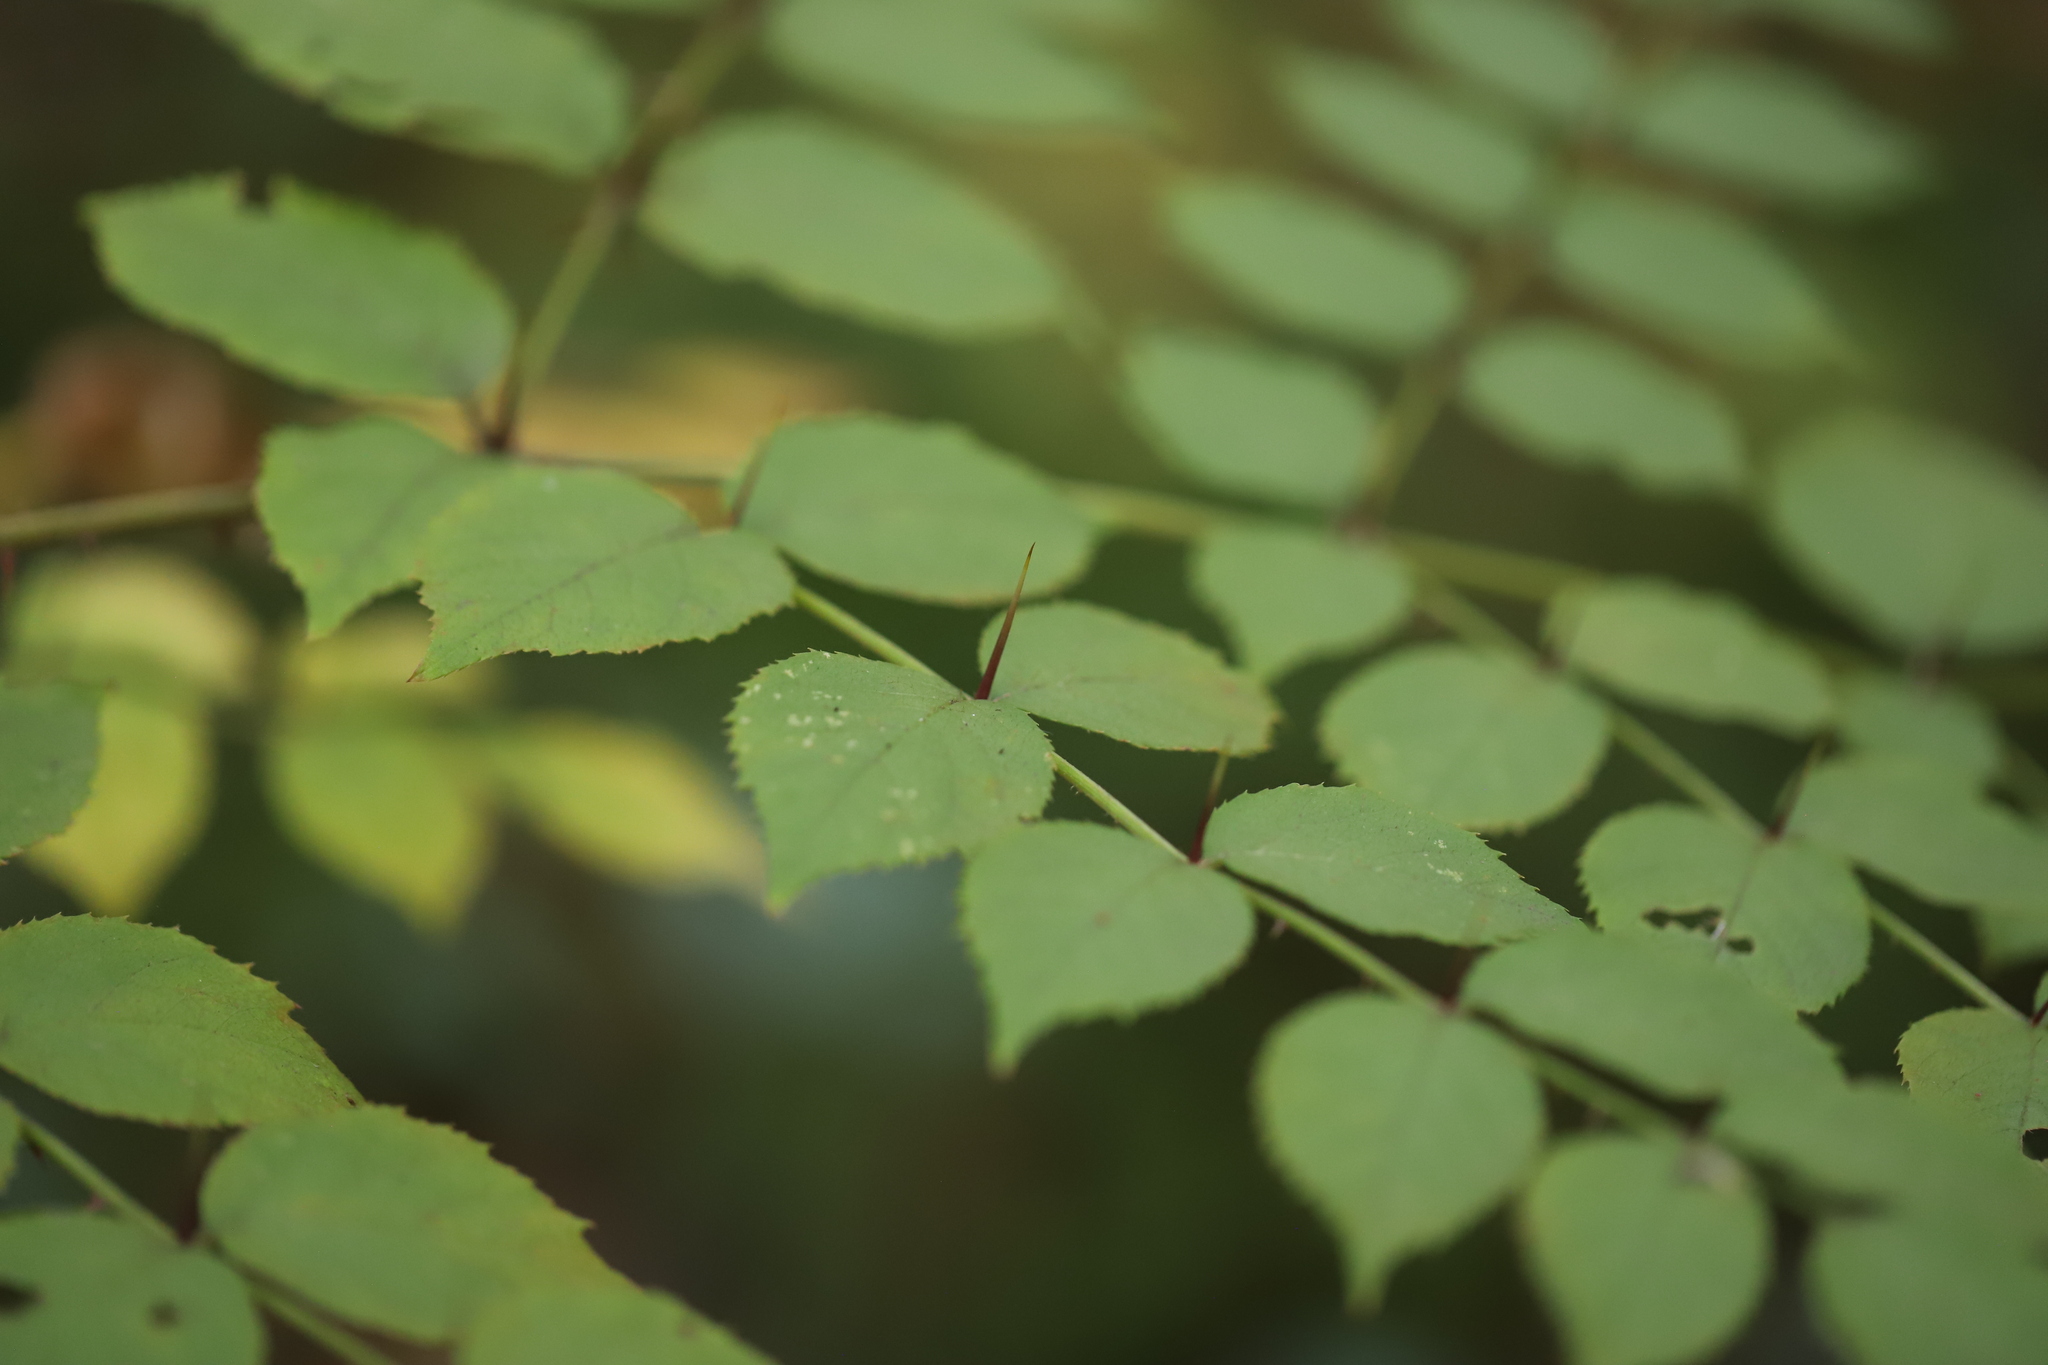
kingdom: Plantae
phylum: Tracheophyta
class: Magnoliopsida
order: Apiales
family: Araliaceae
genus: Aralia
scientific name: Aralia elata
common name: Japanese angelica-tree
